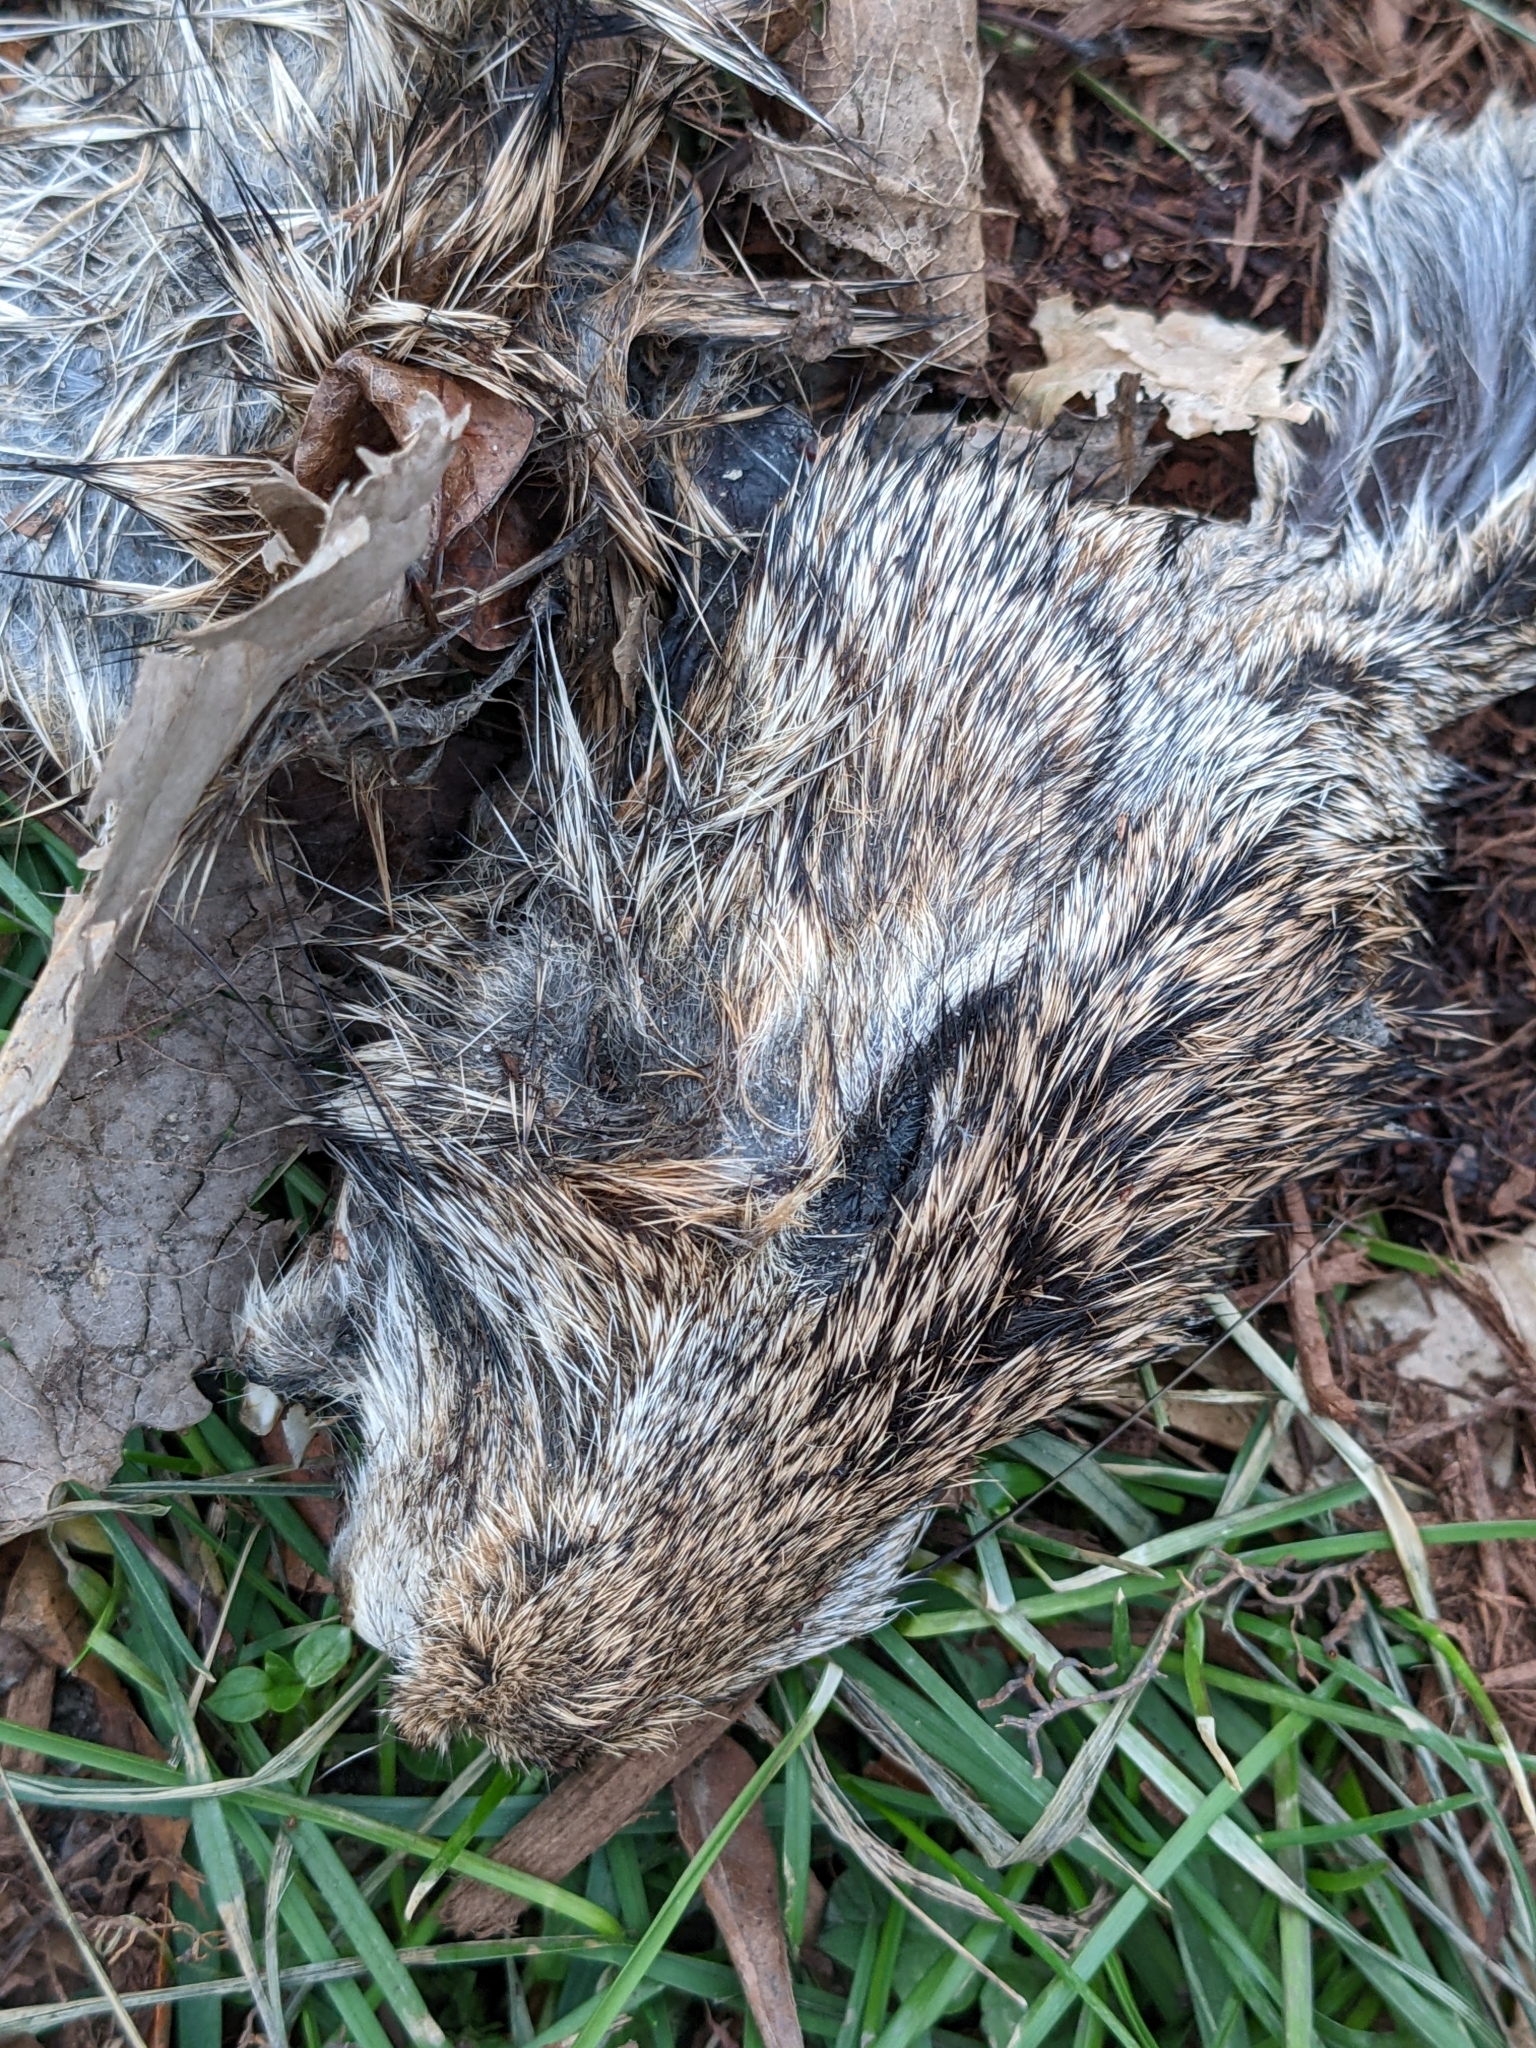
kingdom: Animalia
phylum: Chordata
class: Mammalia
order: Lagomorpha
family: Leporidae
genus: Sylvilagus
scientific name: Sylvilagus floridanus
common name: Eastern cottontail
